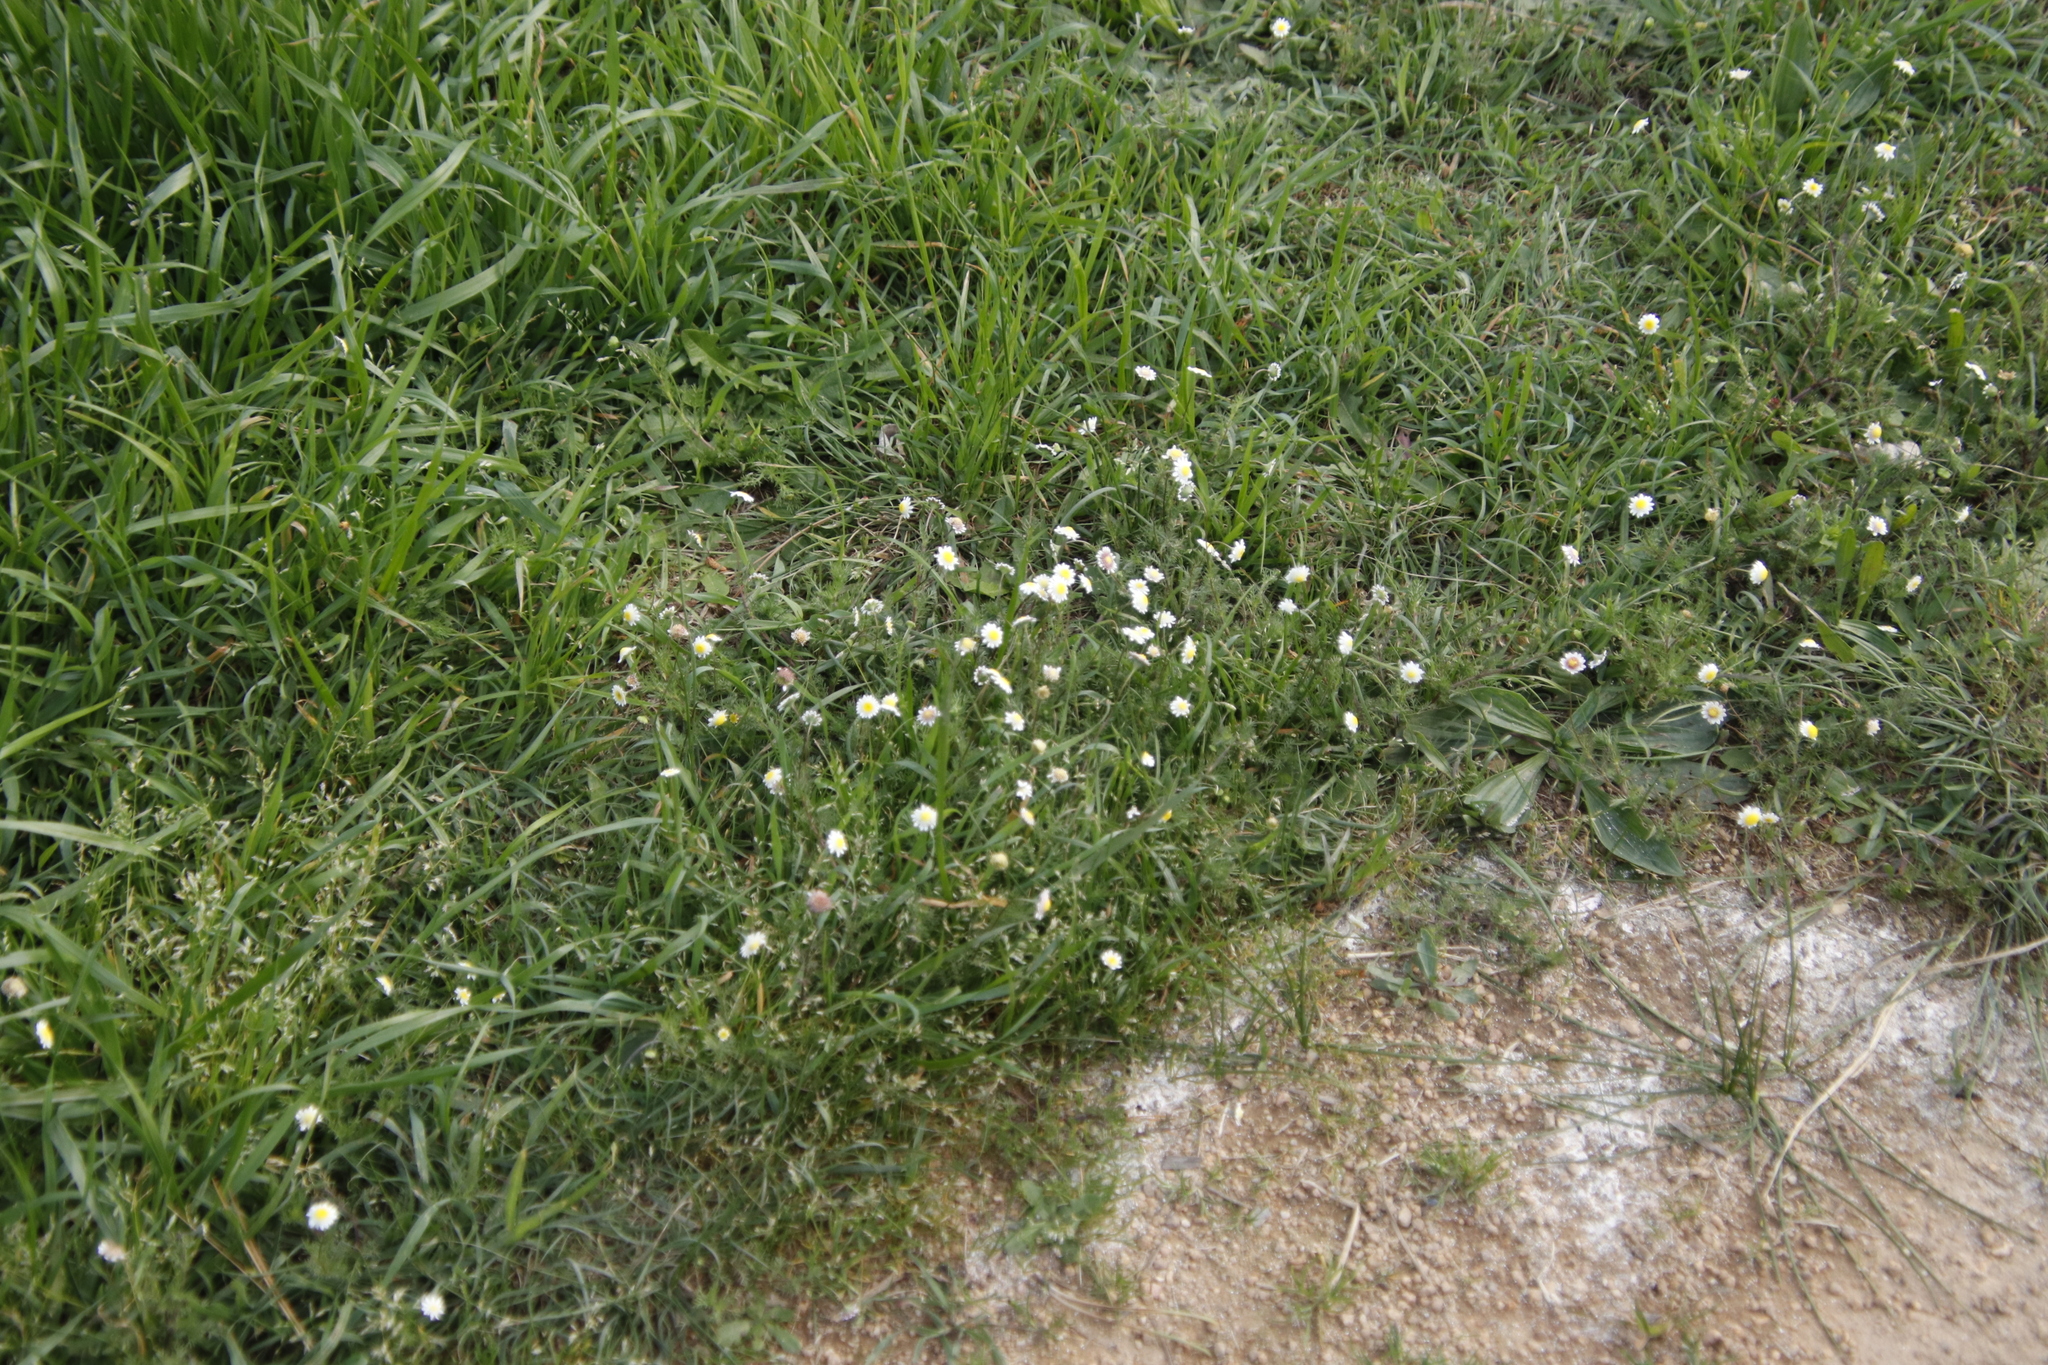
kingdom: Plantae
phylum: Tracheophyta
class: Magnoliopsida
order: Asterales
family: Asteraceae
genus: Cotula
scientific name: Cotula turbinata
